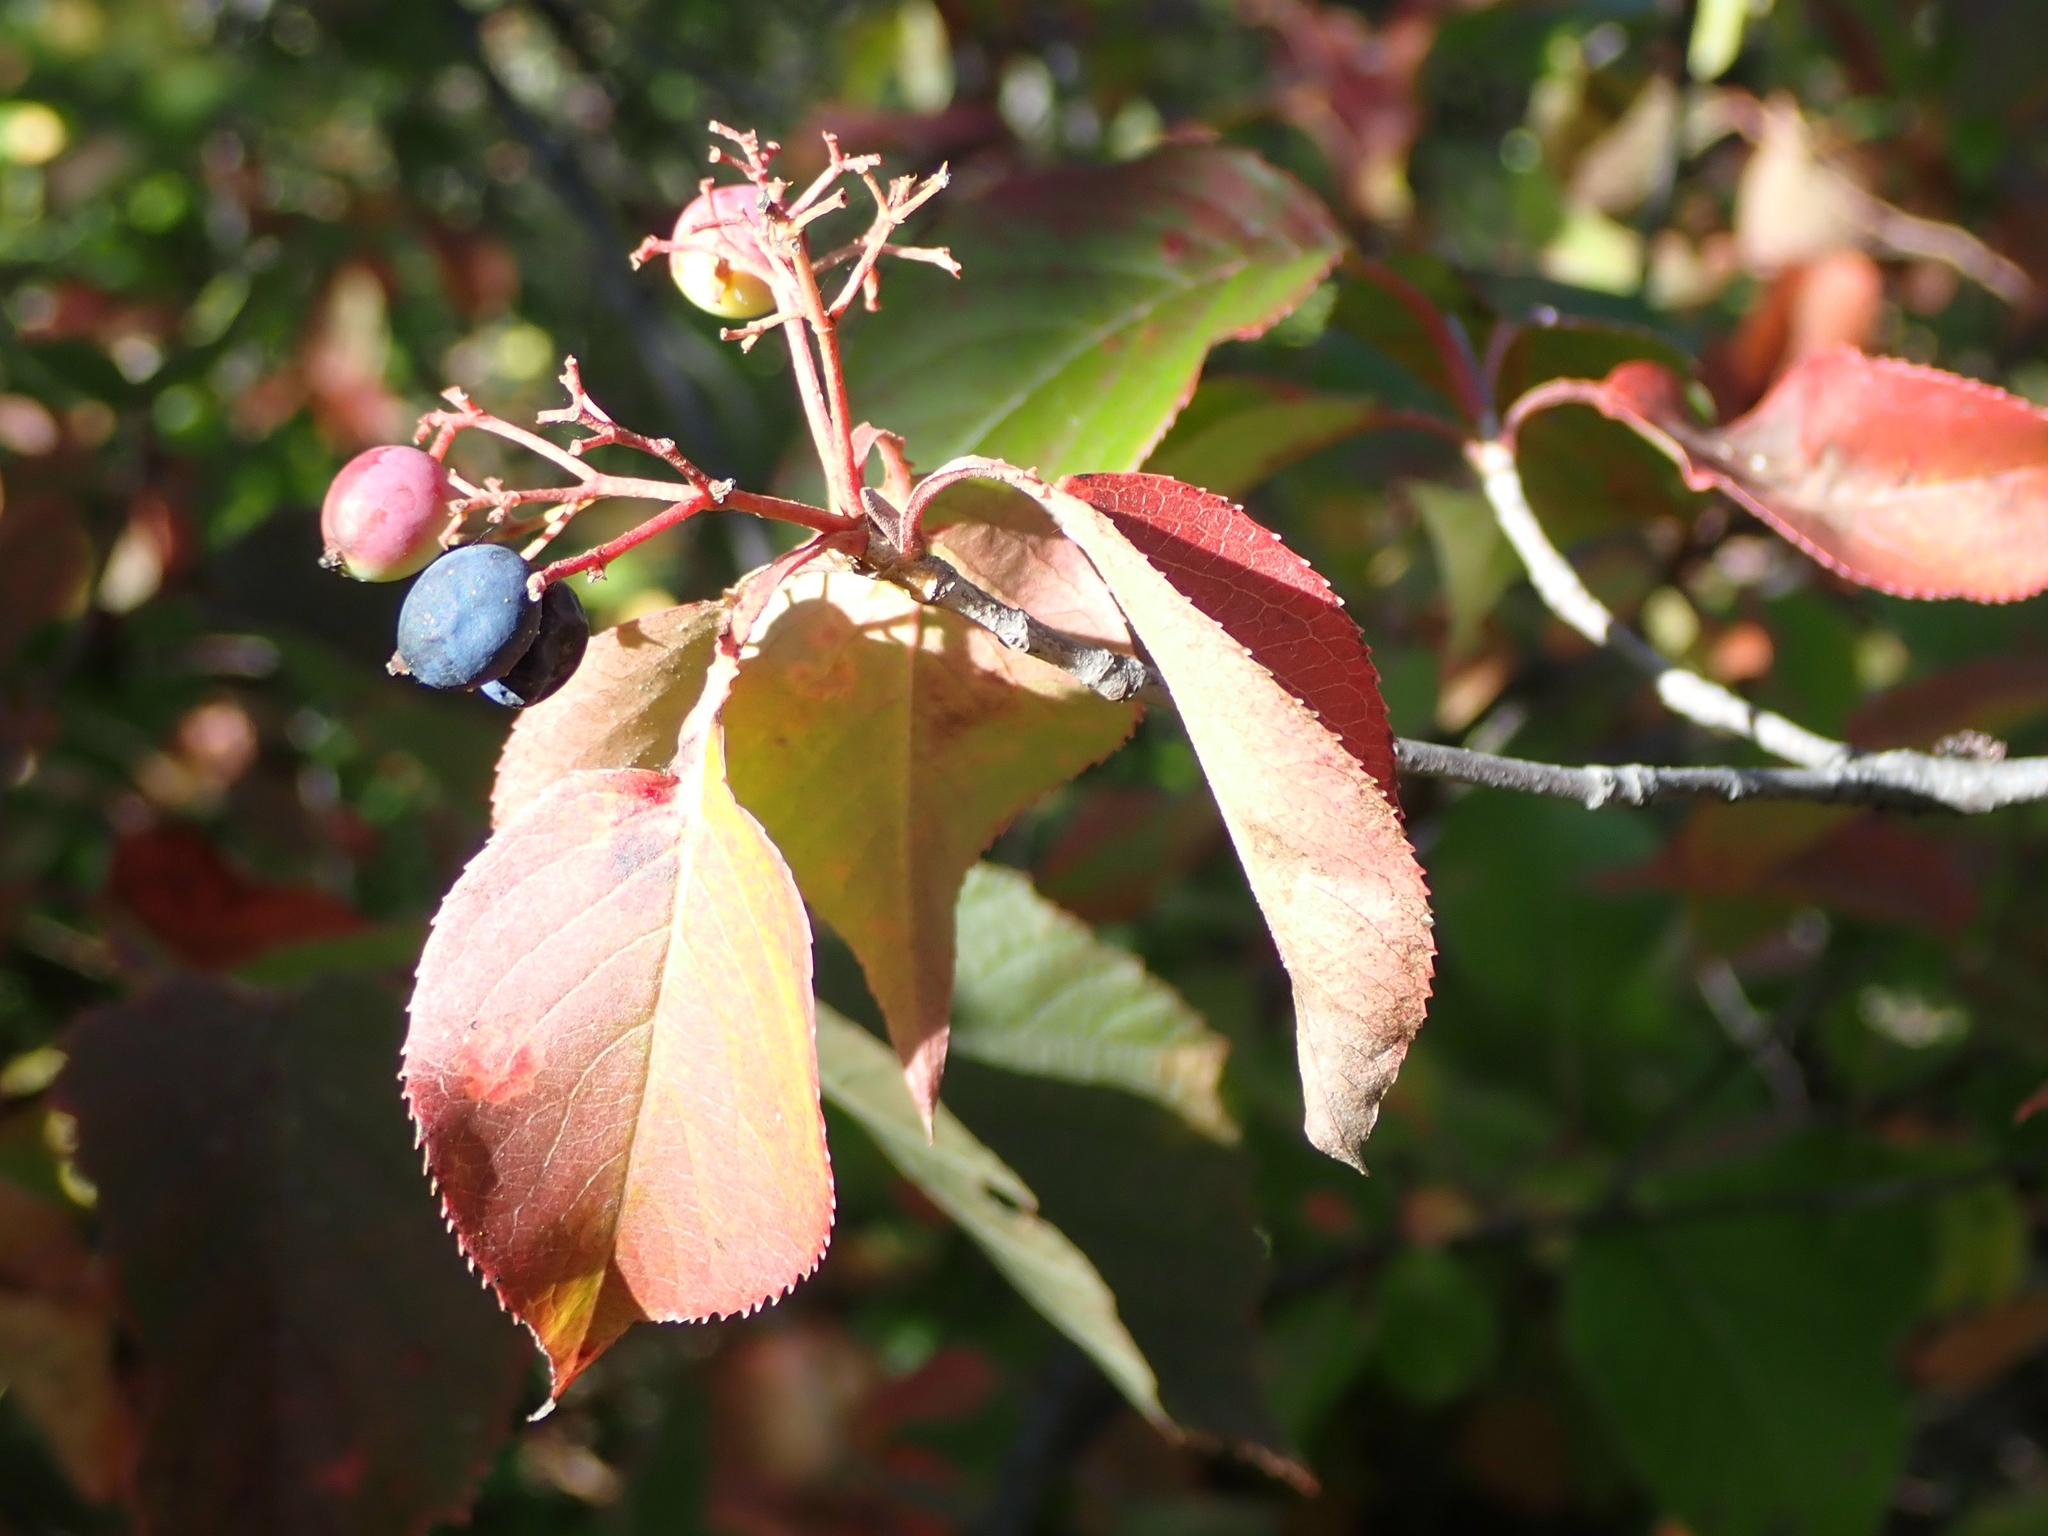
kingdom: Plantae
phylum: Tracheophyta
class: Magnoliopsida
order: Dipsacales
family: Viburnaceae
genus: Viburnum
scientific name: Viburnum lentago
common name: Black haw
